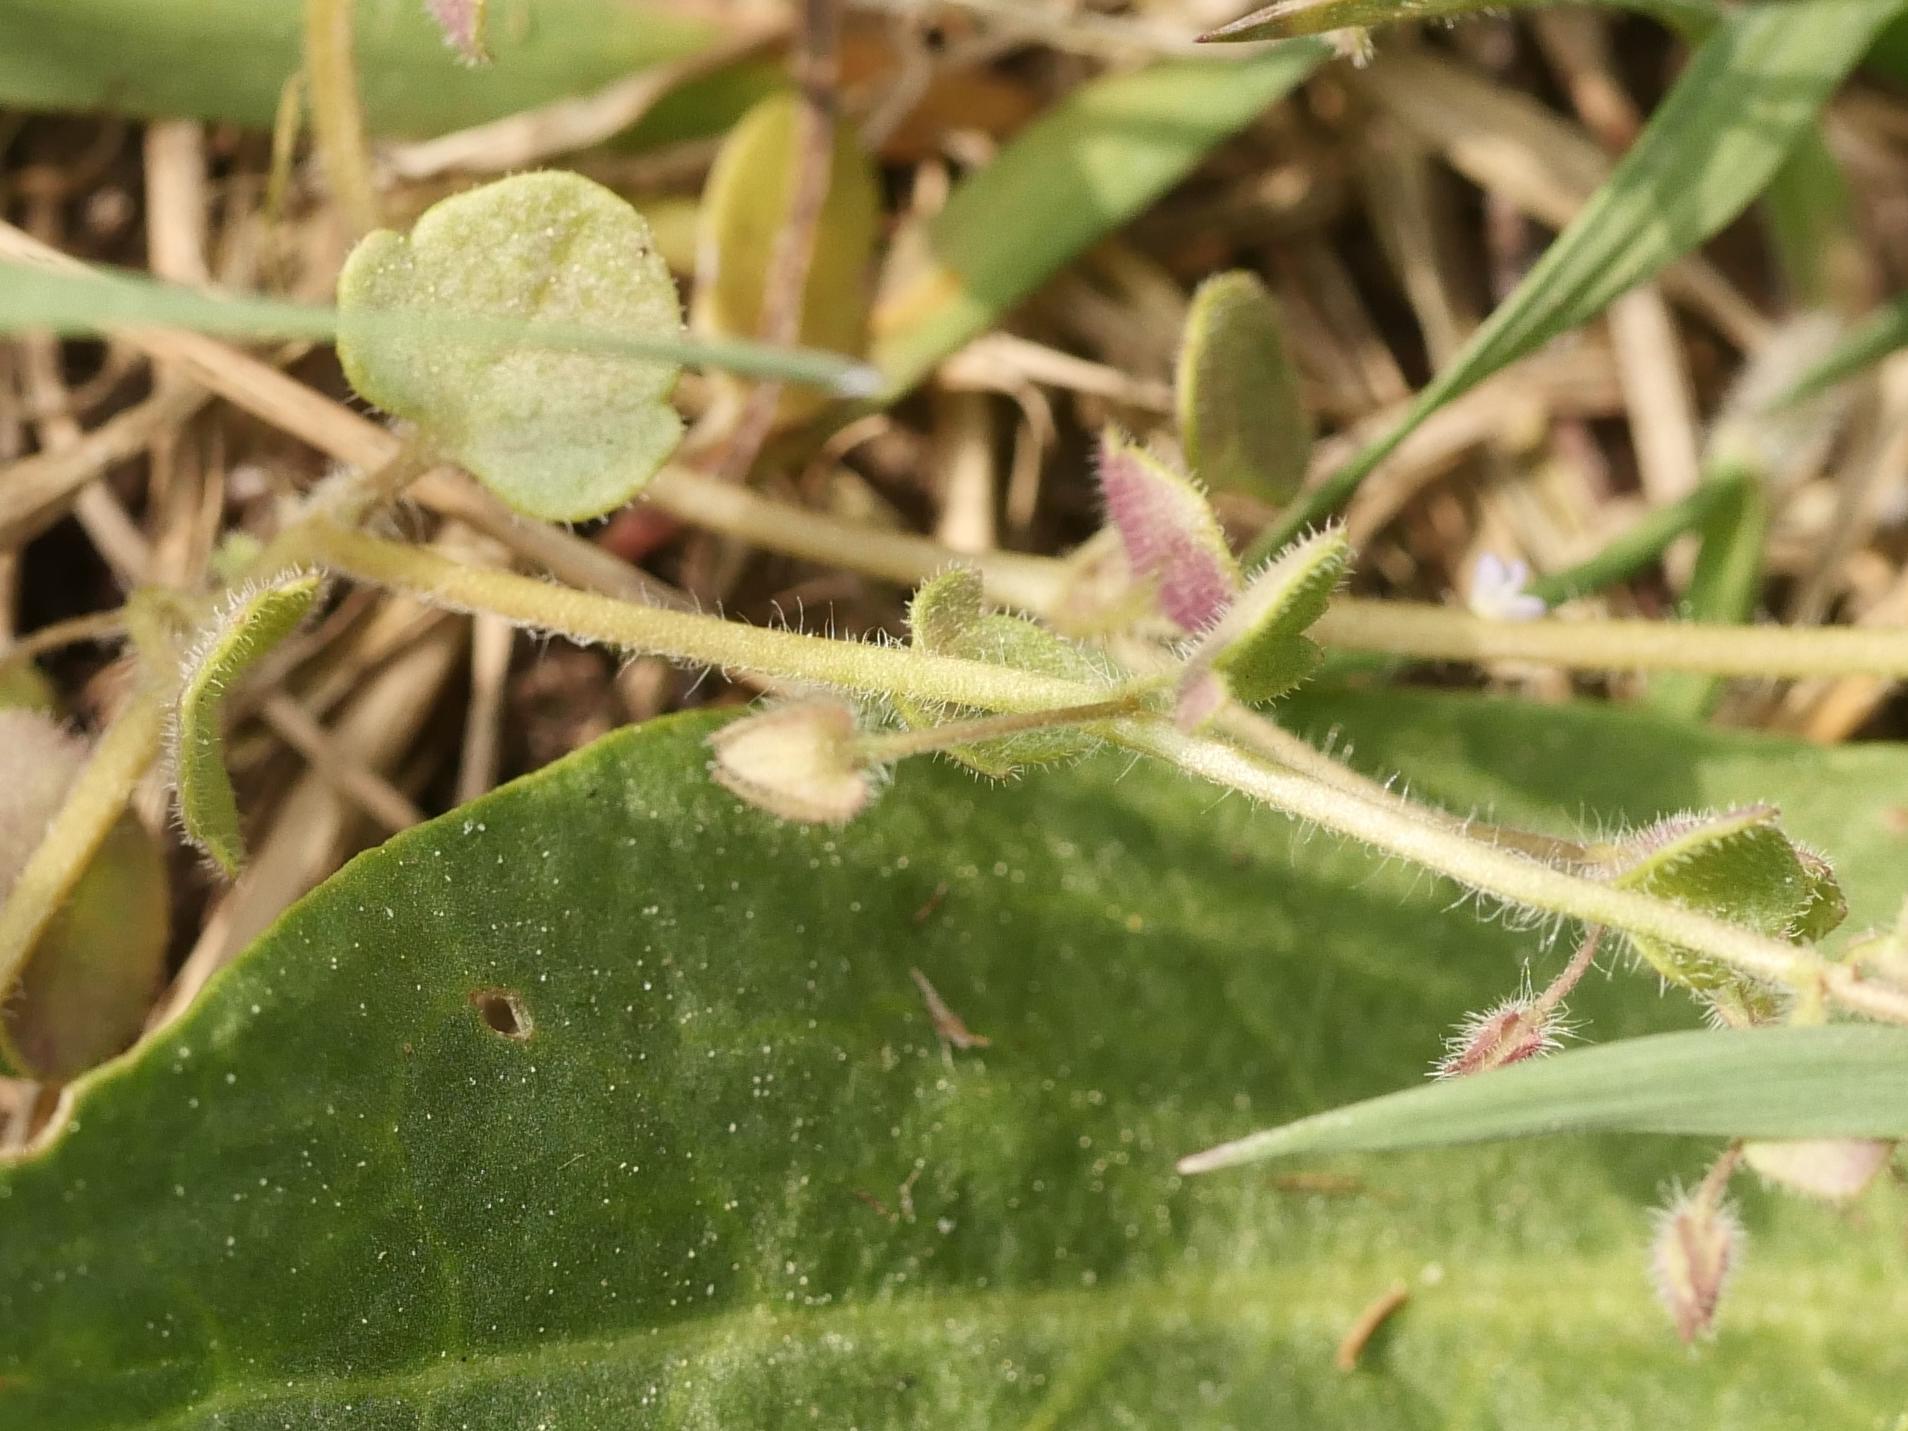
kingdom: Plantae
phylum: Tracheophyta
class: Magnoliopsida
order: Lamiales
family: Plantaginaceae
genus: Veronica
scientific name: Veronica sublobata
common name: False ivy-leaved speedwell
